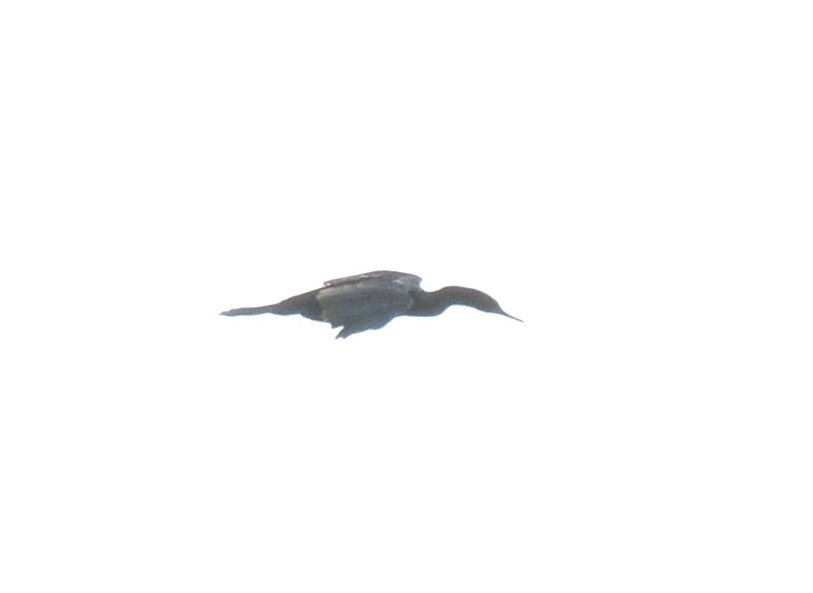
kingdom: Animalia
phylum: Chordata
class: Aves
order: Suliformes
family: Phalacrocoracidae
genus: Phalacrocorax
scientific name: Phalacrocorax fuscicollis
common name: Indian cormorant
